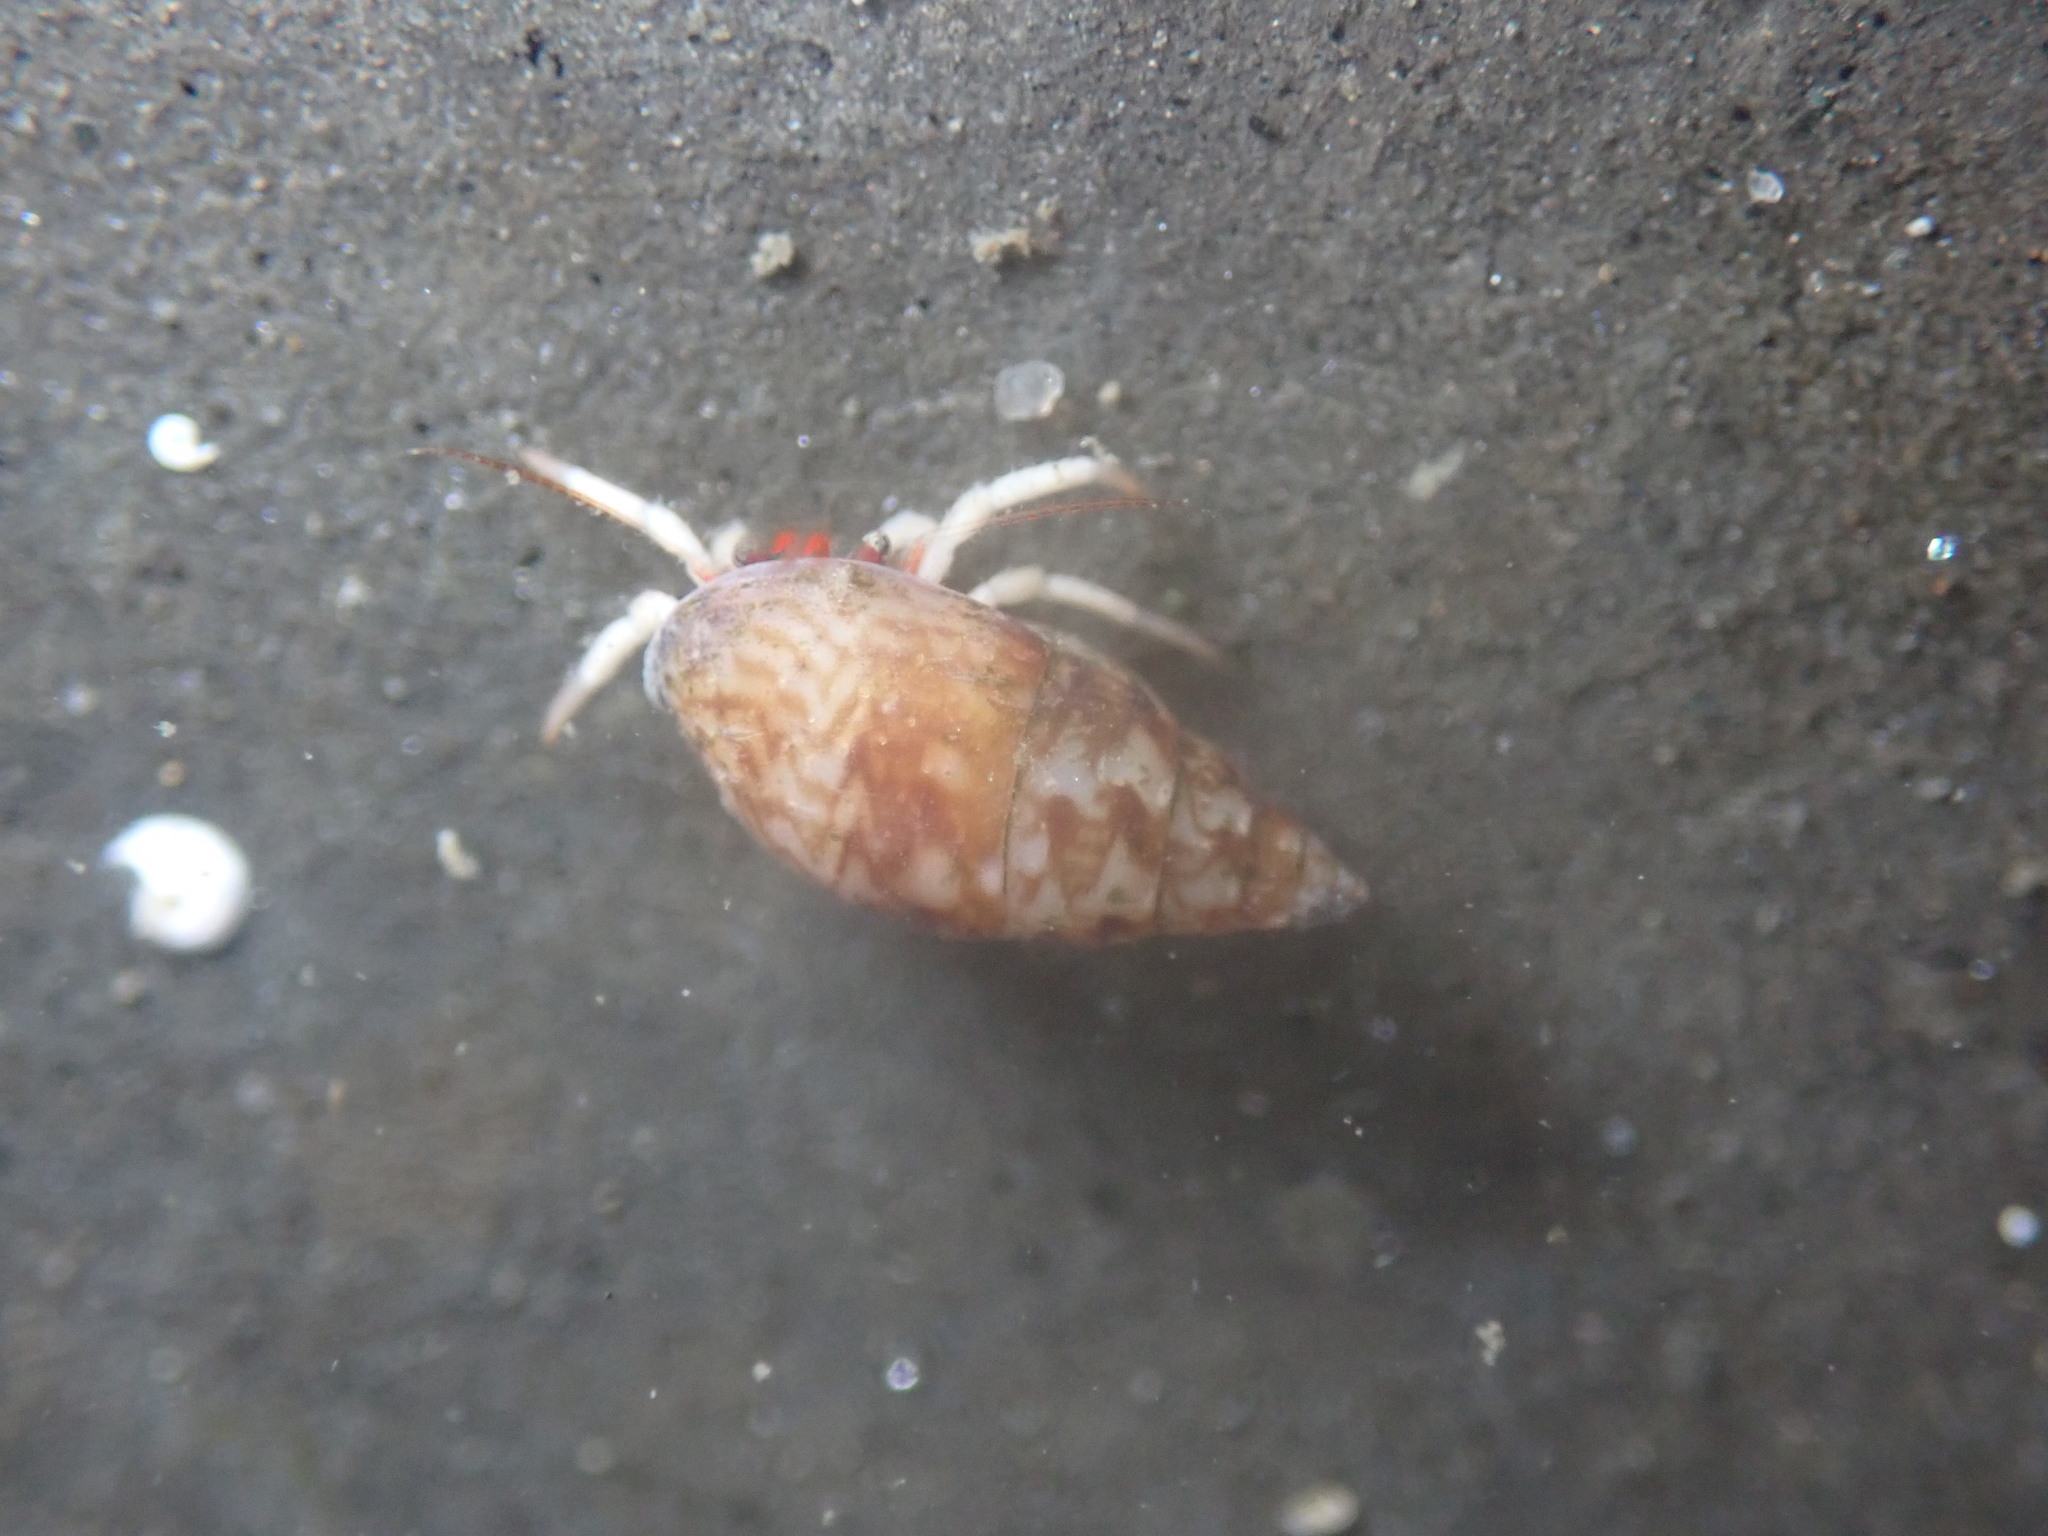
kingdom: Animalia
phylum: Arthropoda
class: Malacostraca
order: Decapoda
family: Paguridae
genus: Pagurus
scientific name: Pagurus granosimanus
